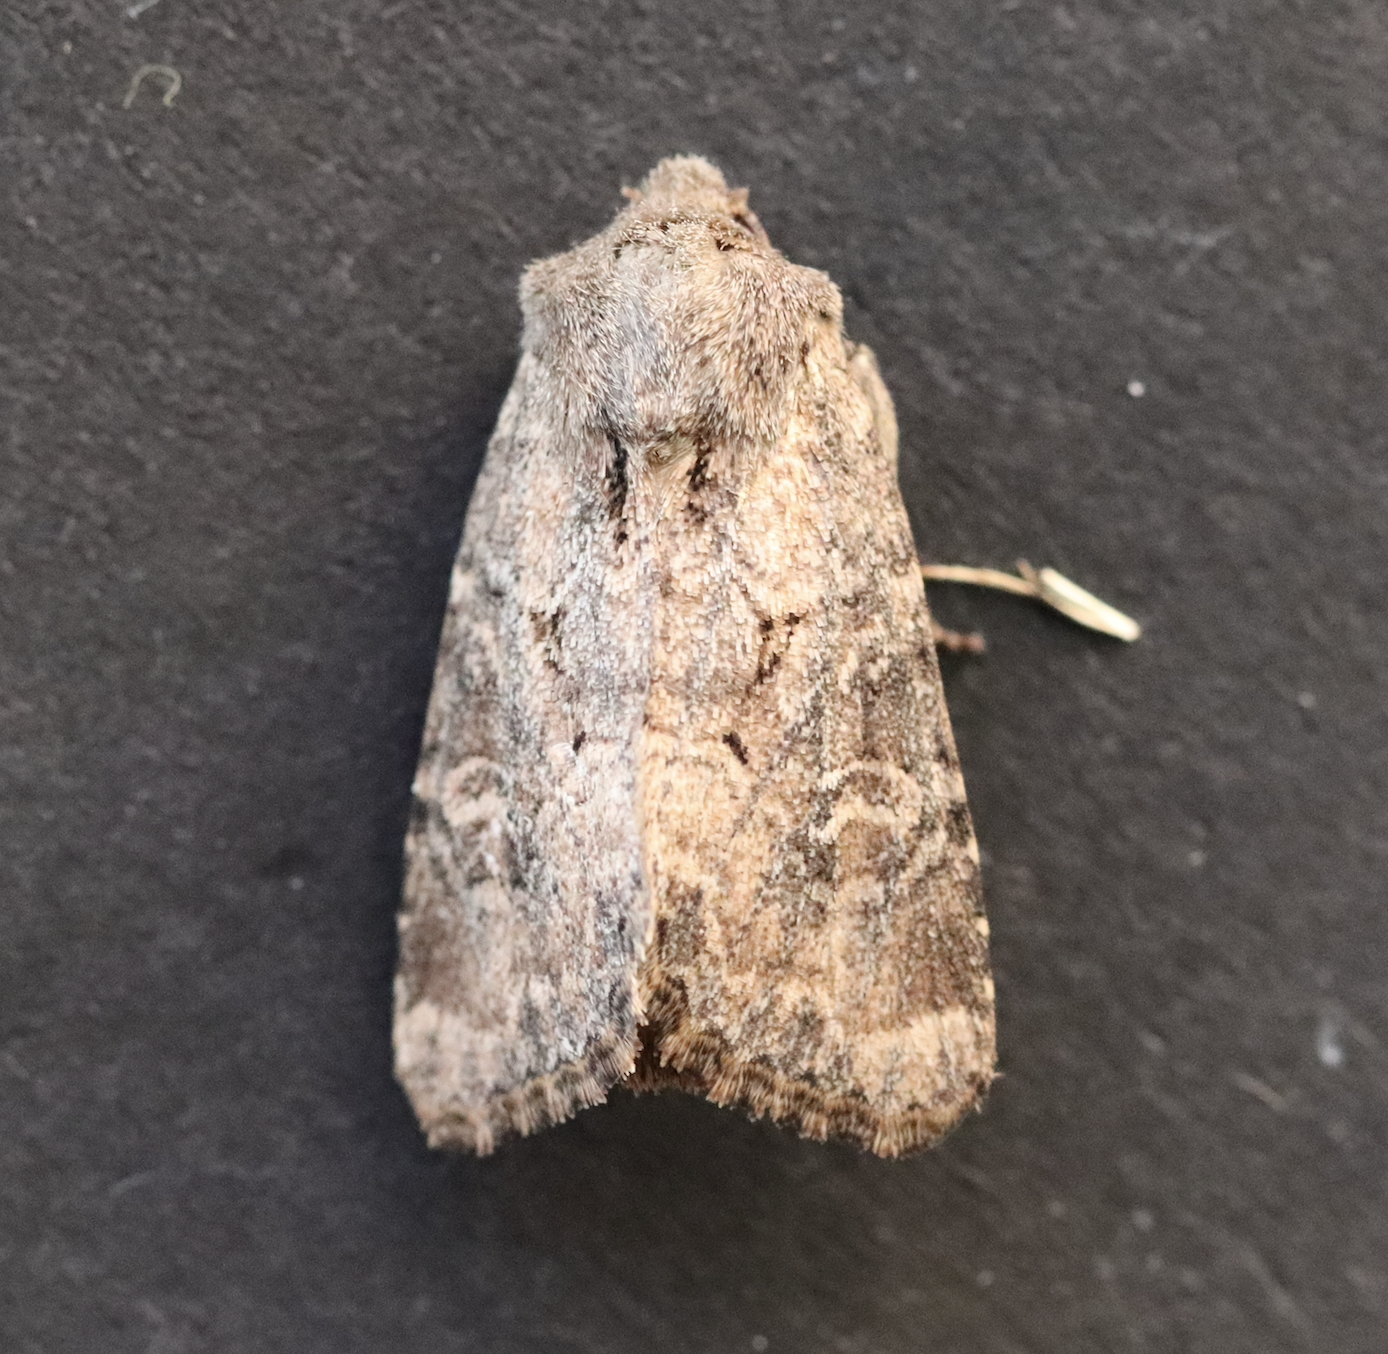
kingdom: Animalia
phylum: Arthropoda
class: Insecta
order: Lepidoptera
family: Noctuidae
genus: Luperina
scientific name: Luperina testacea
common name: Flounced rustic
